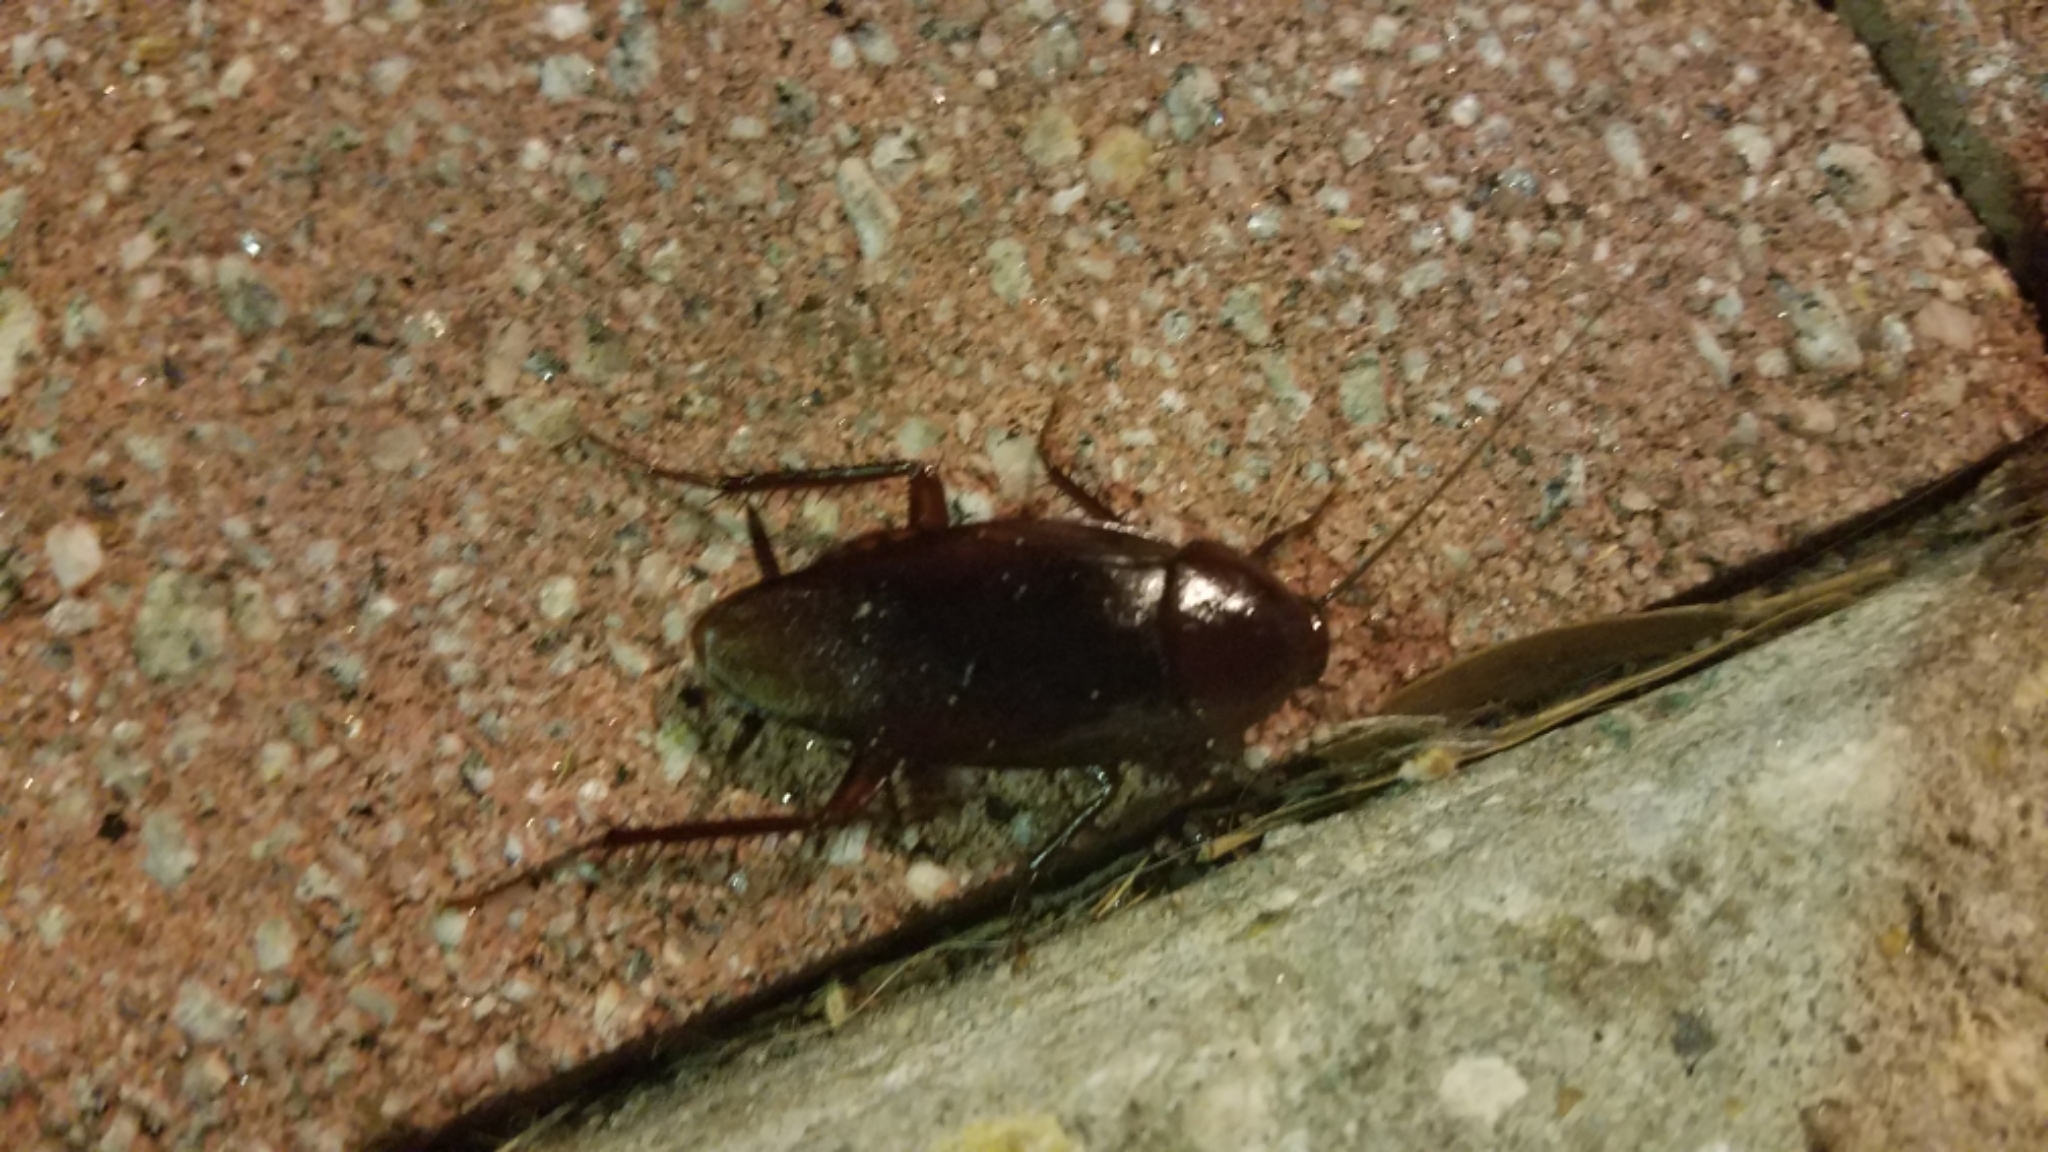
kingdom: Animalia
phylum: Arthropoda
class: Insecta
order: Blattodea
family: Blattidae
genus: Periplaneta
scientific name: Periplaneta fuliginosa
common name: Smokeybrown cockroad
